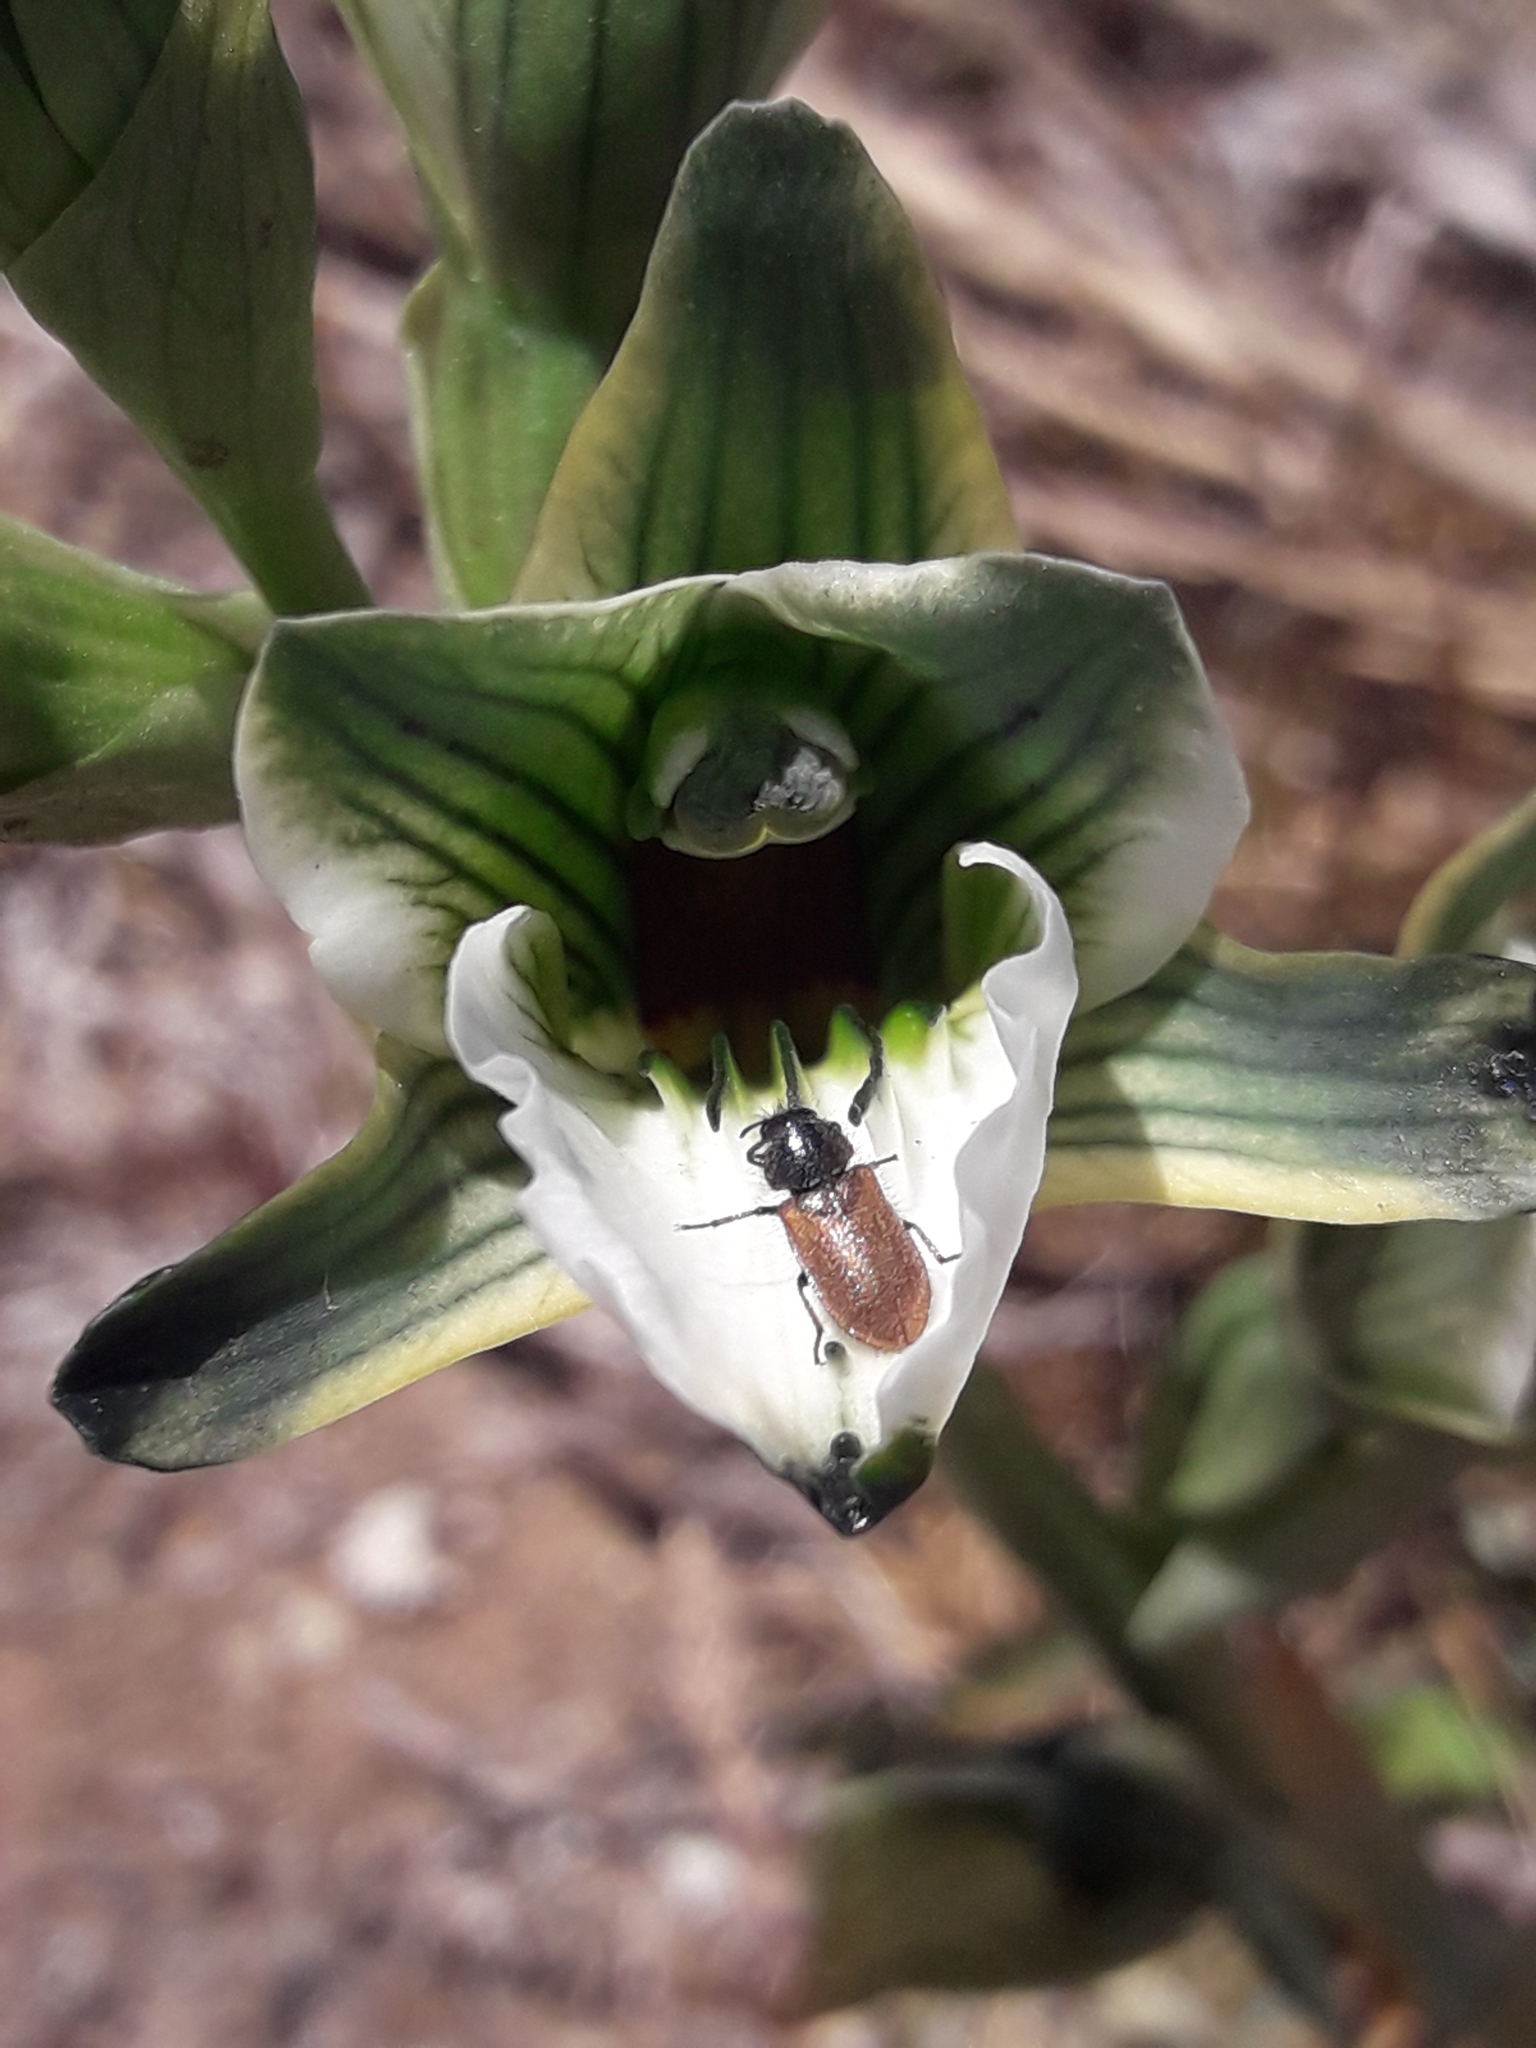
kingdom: Plantae
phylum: Tracheophyta
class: Liliopsida
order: Asparagales
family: Orchidaceae
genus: Chloraea
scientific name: Chloraea bletioides
